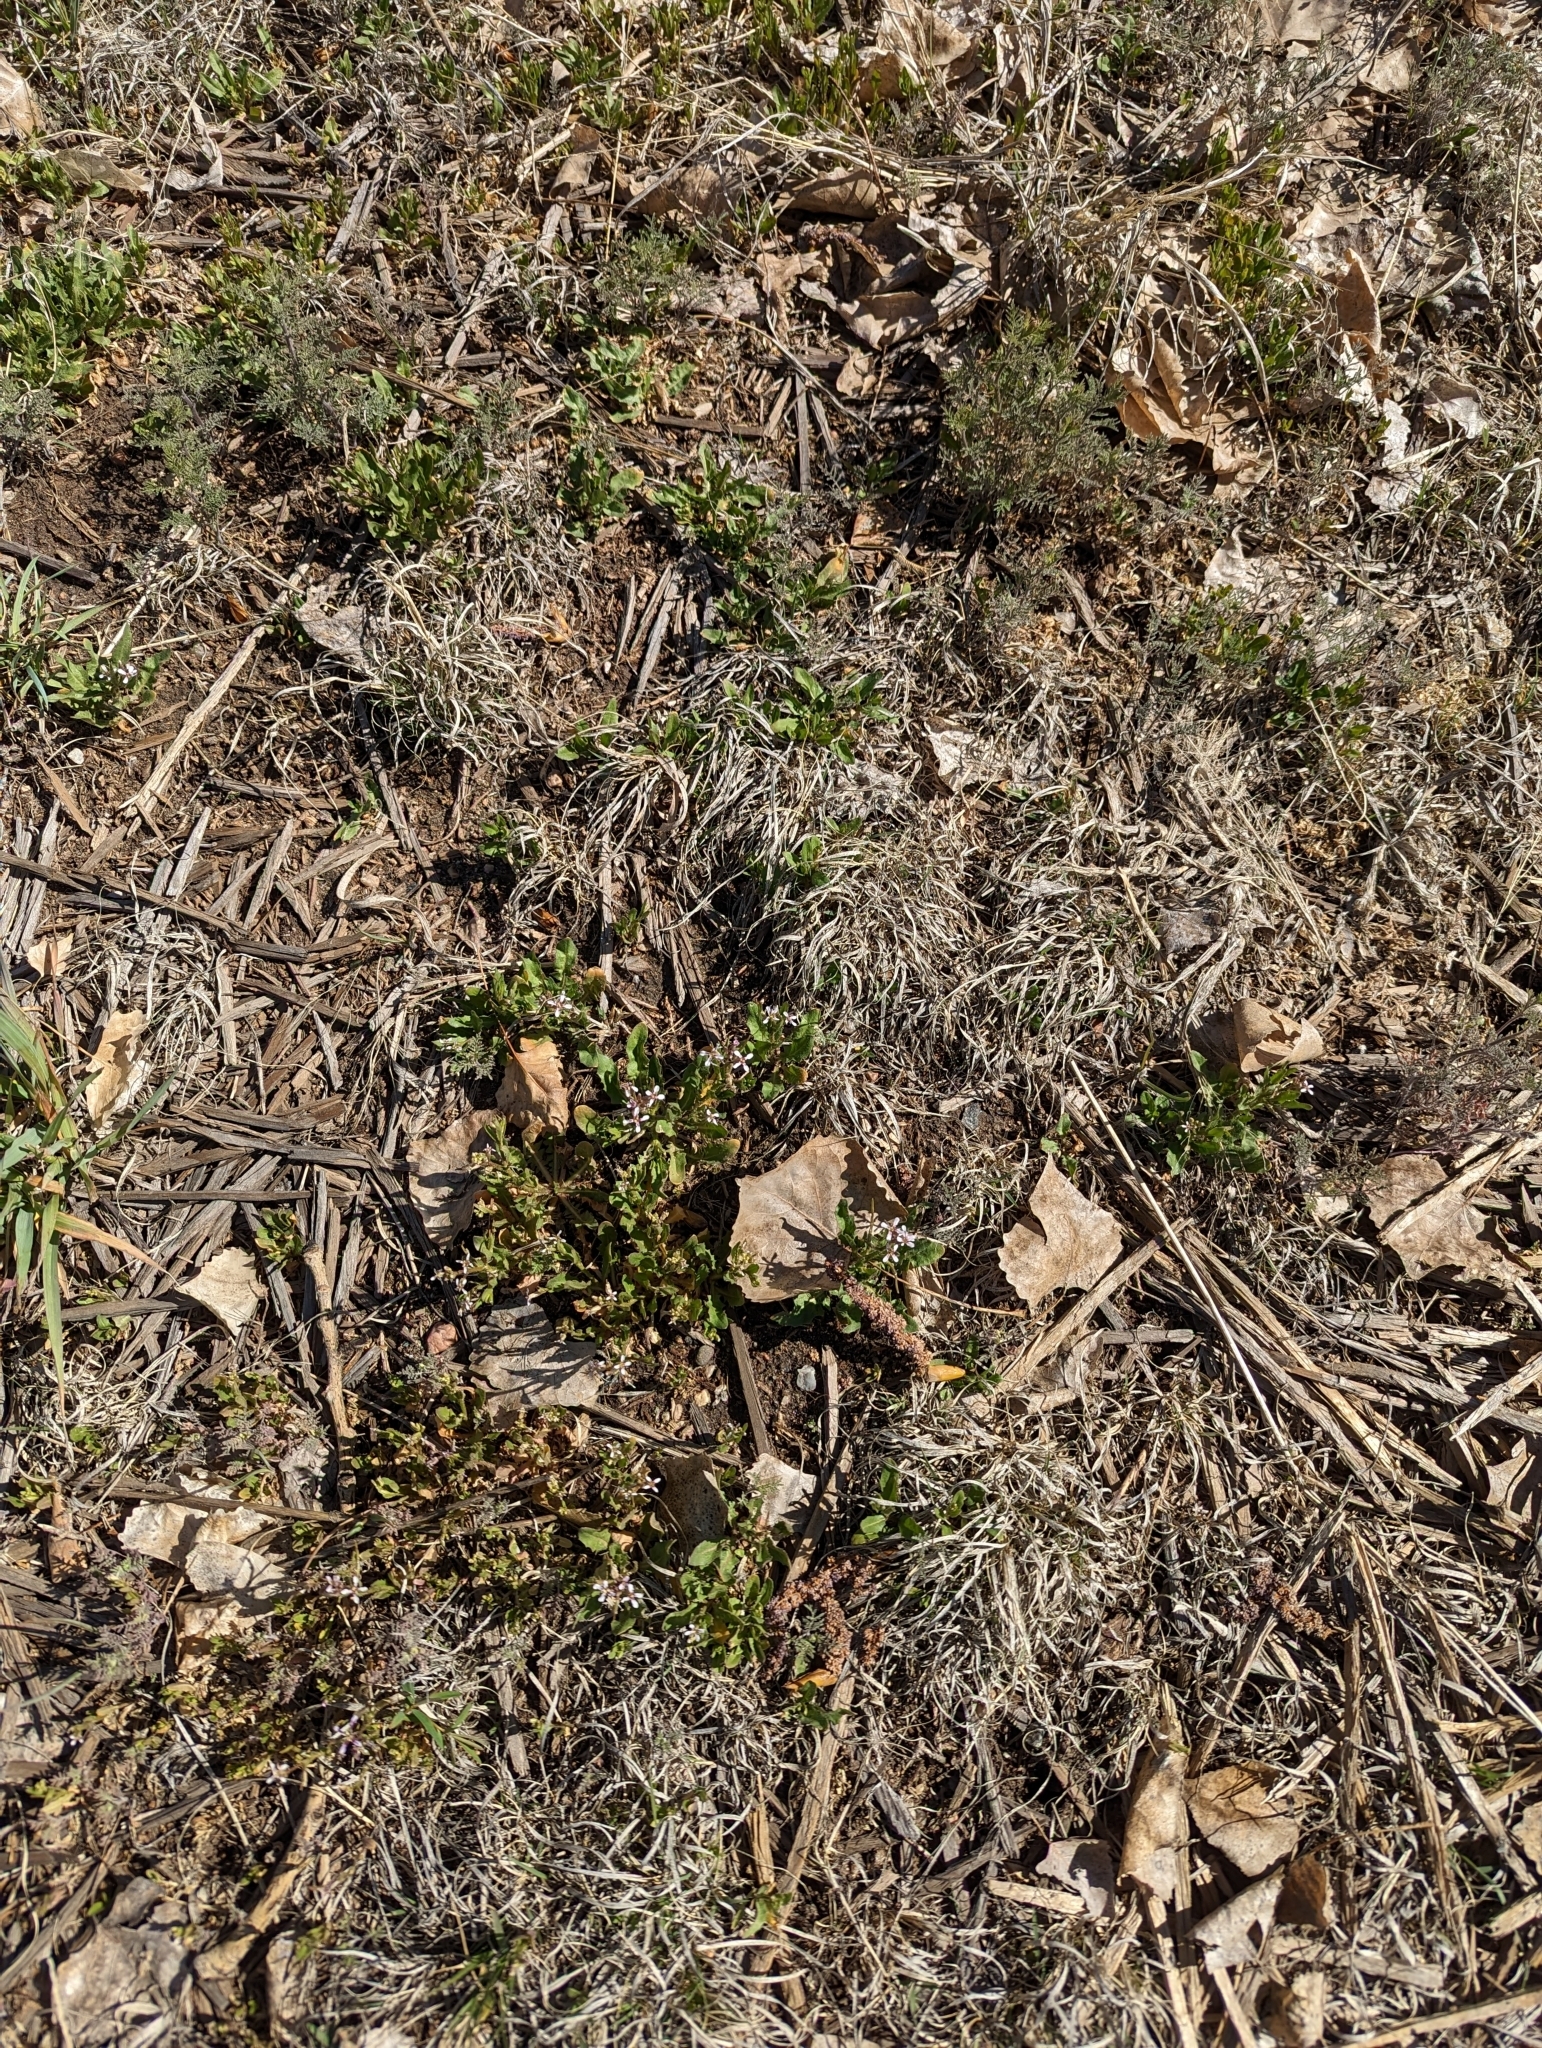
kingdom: Plantae
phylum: Tracheophyta
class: Magnoliopsida
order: Brassicales
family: Brassicaceae
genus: Chorispora
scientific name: Chorispora tenella
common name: Crossflower
